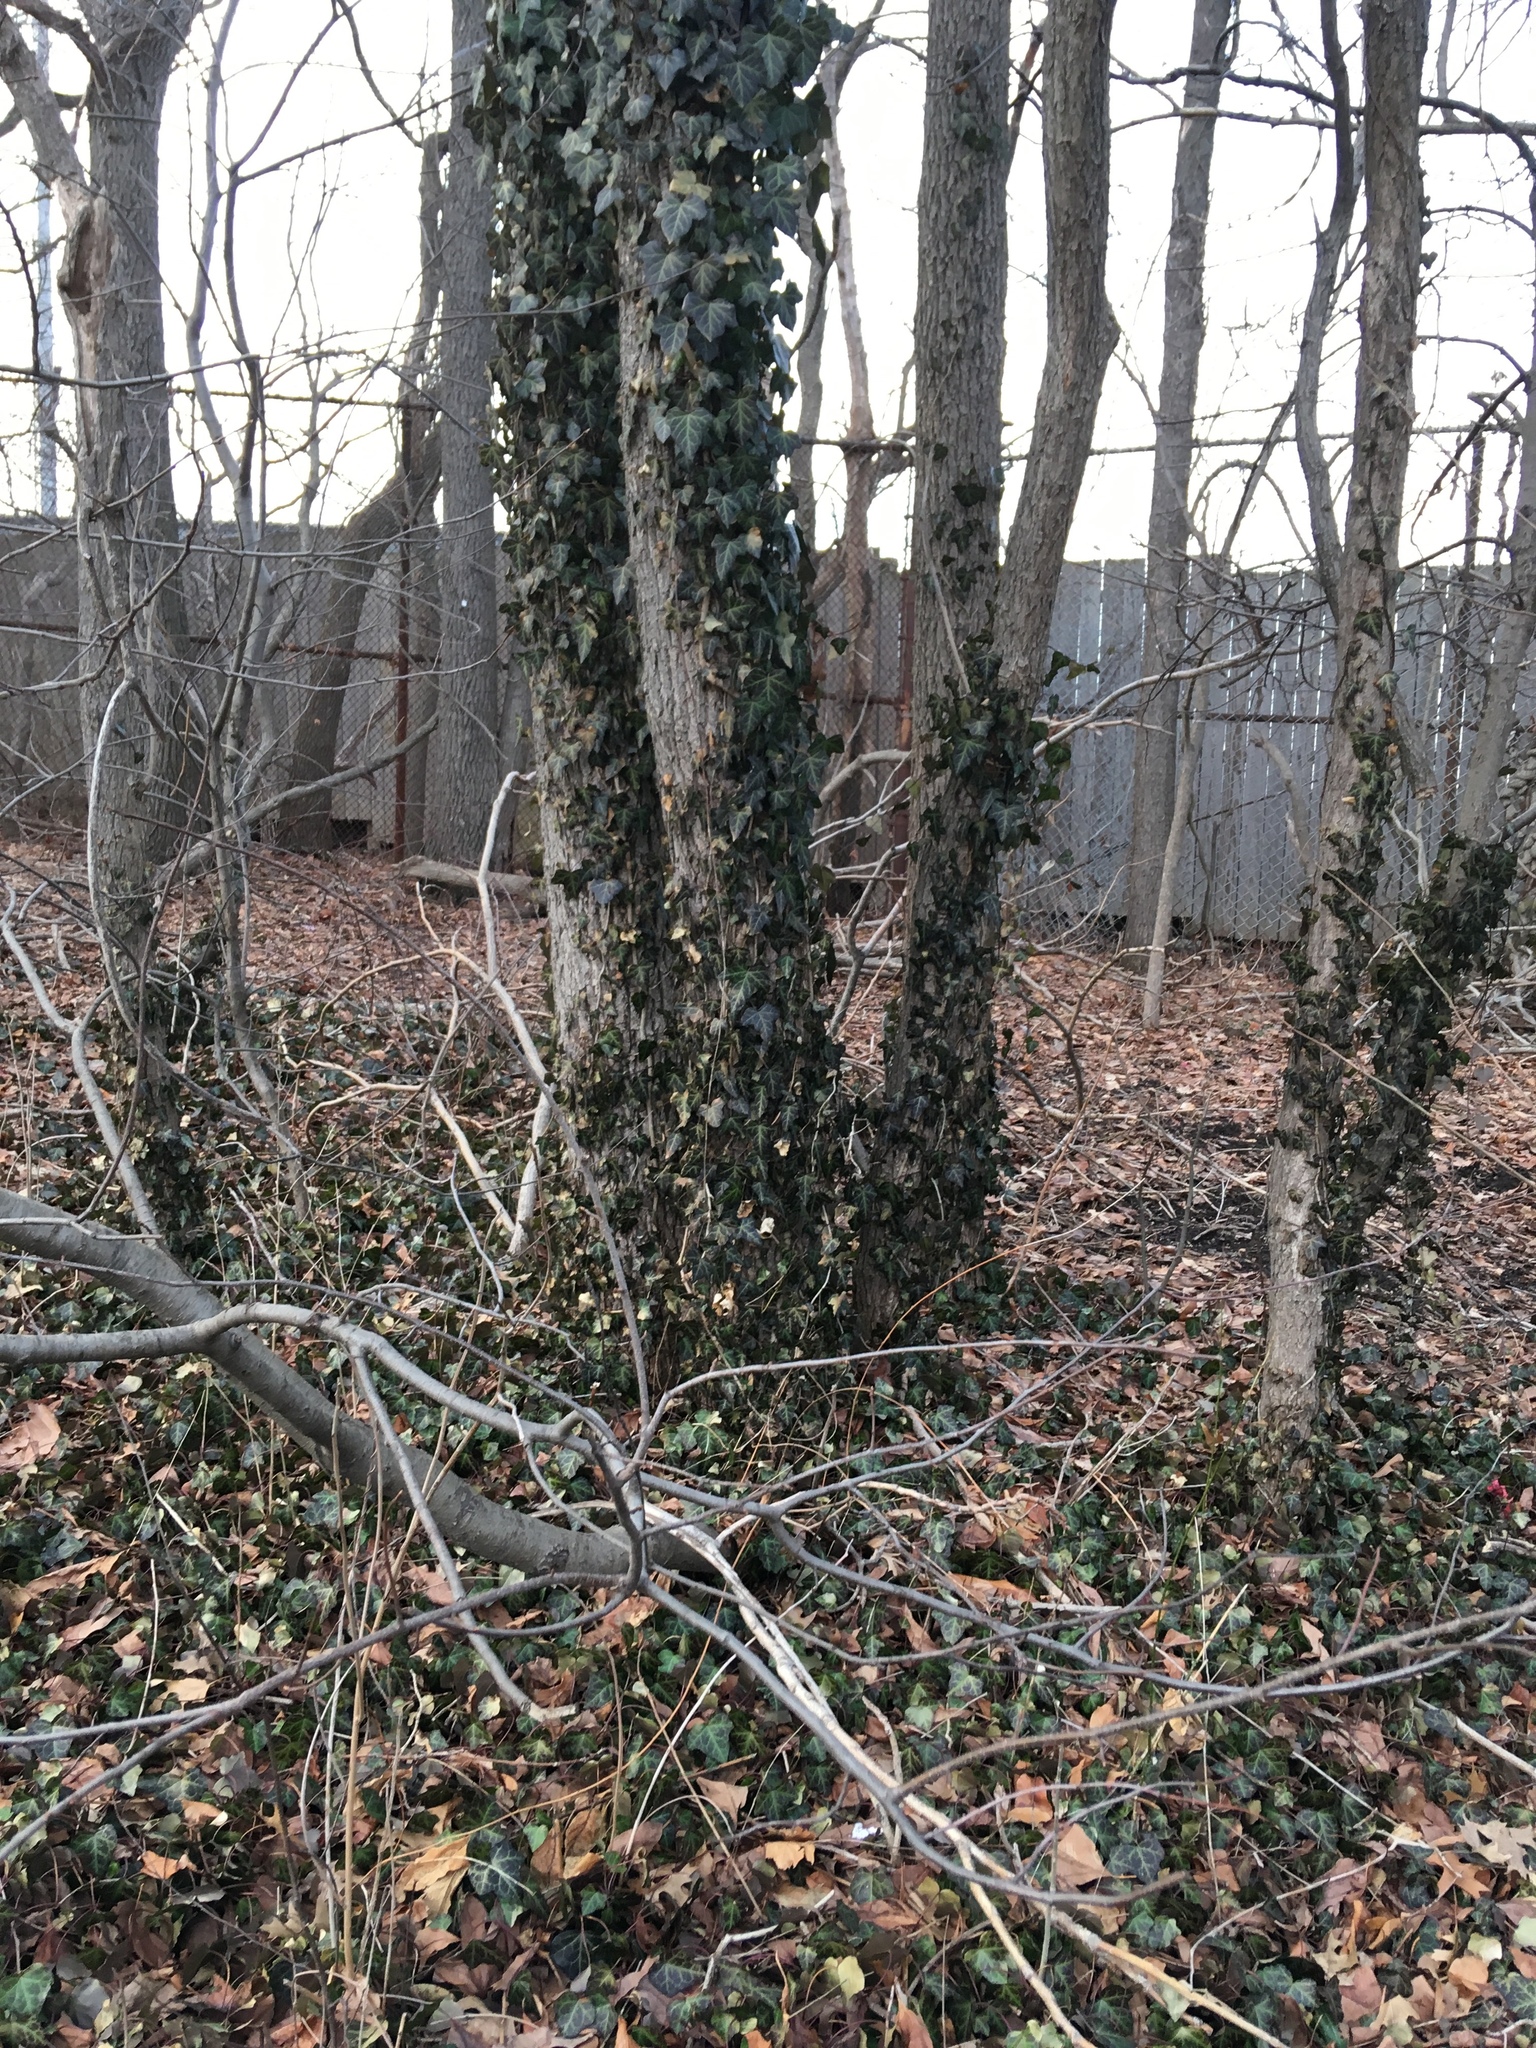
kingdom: Plantae
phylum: Tracheophyta
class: Magnoliopsida
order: Apiales
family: Araliaceae
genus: Hedera
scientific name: Hedera helix
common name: Ivy
